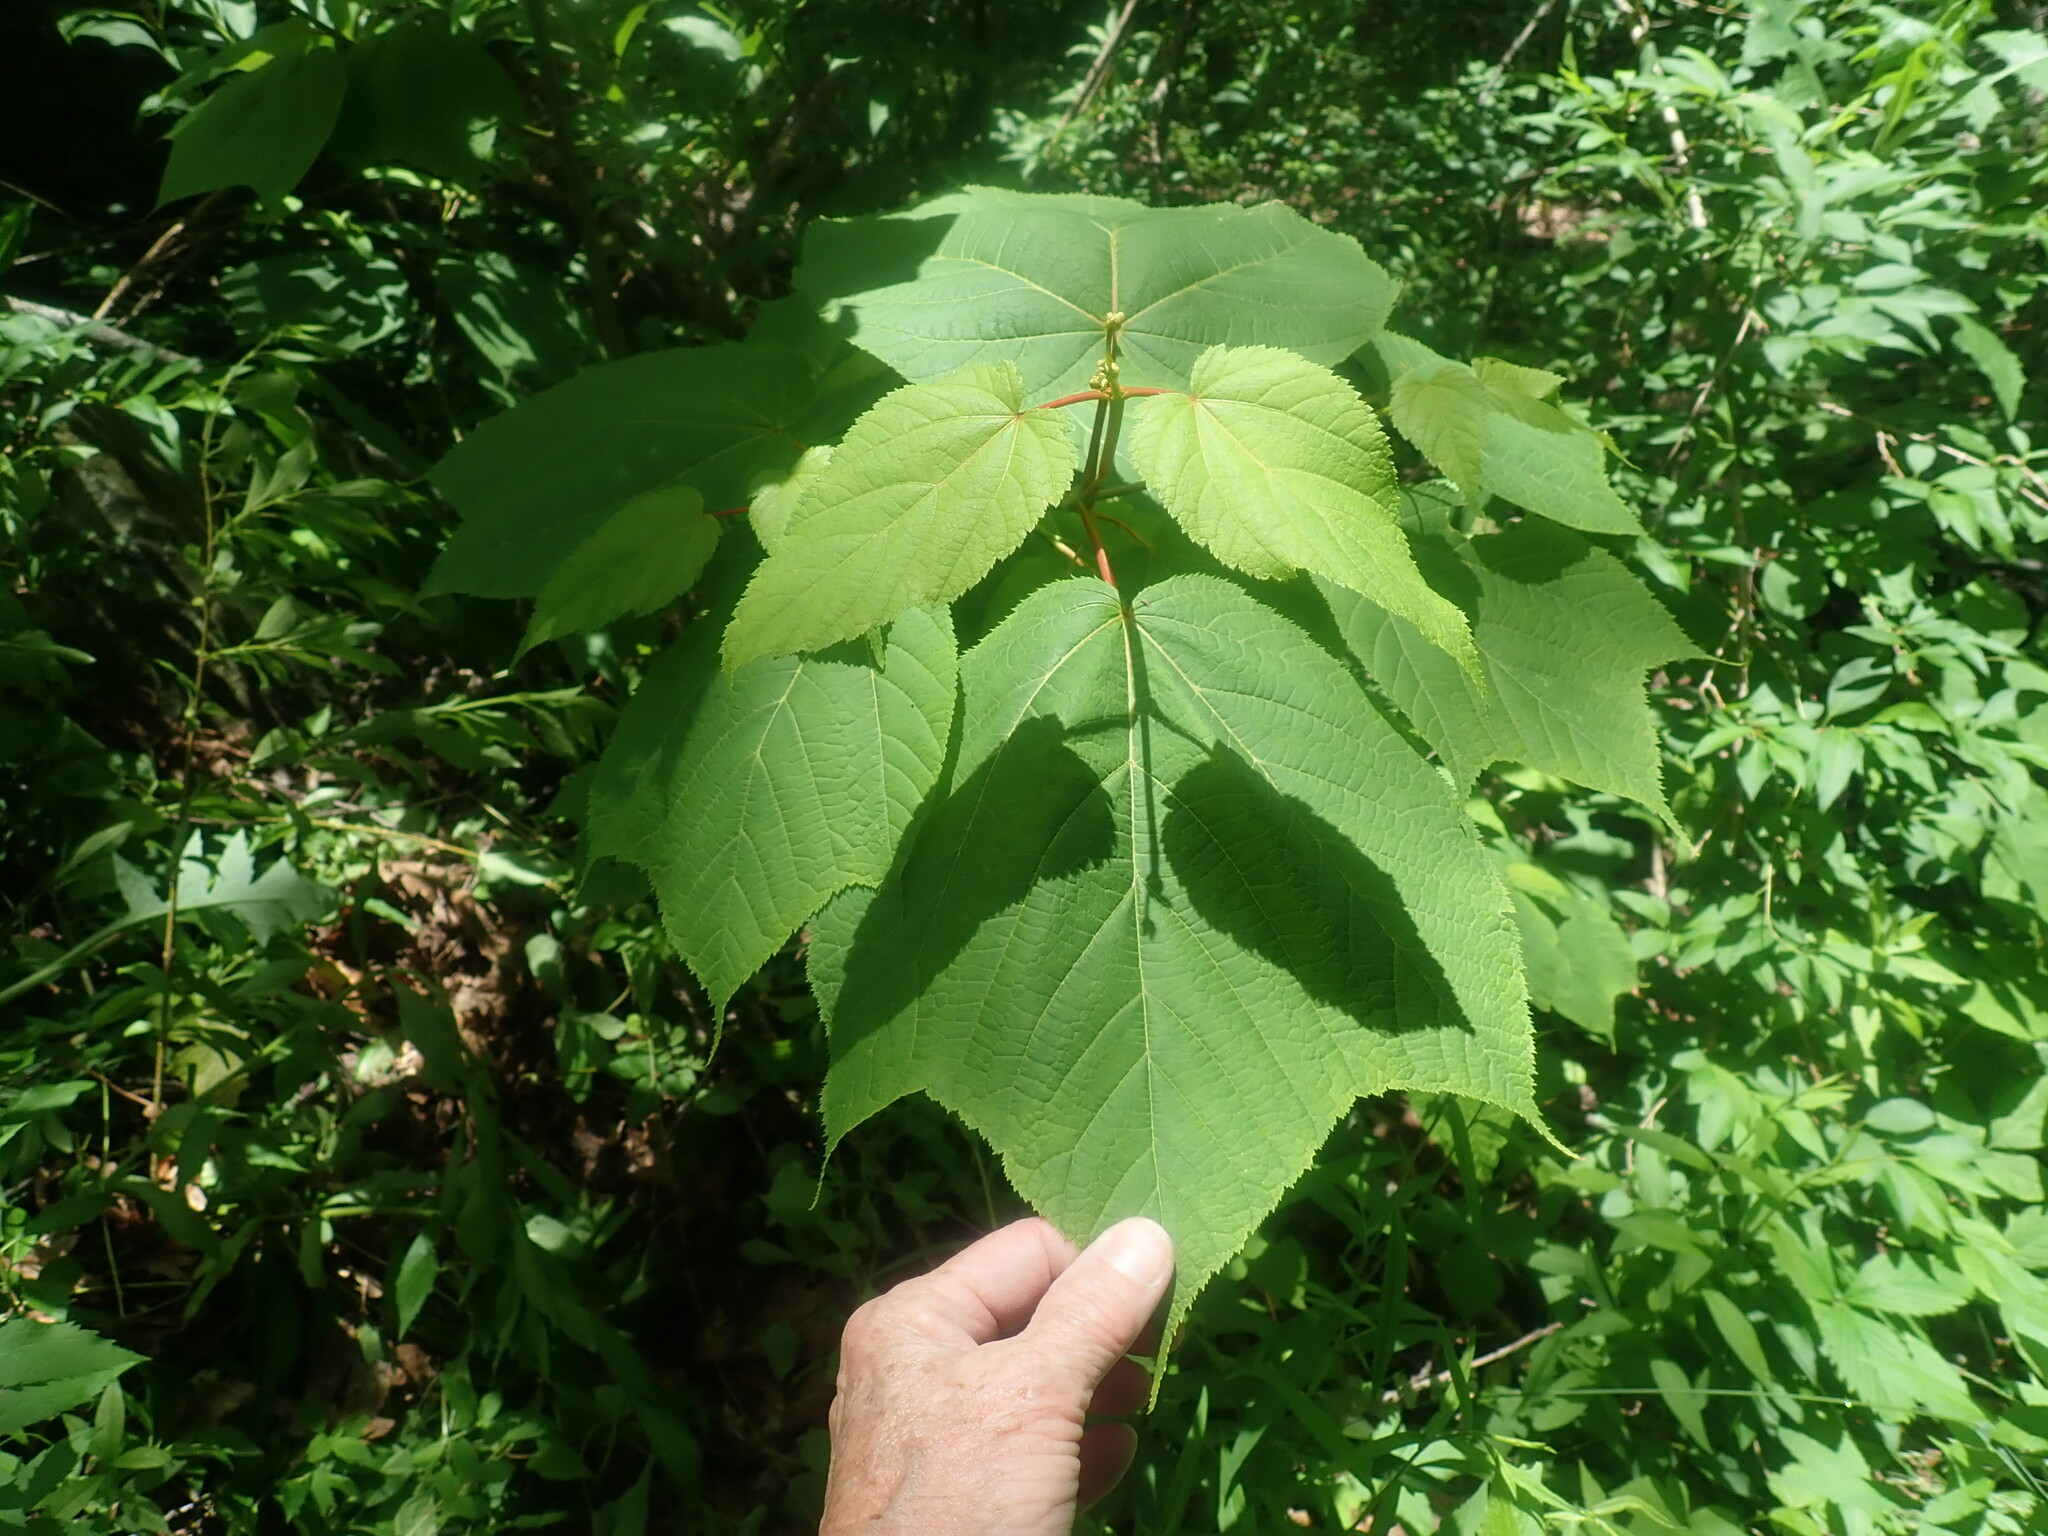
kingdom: Plantae
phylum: Tracheophyta
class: Magnoliopsida
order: Sapindales
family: Sapindaceae
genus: Acer
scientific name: Acer pensylvanicum
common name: Moosewood
